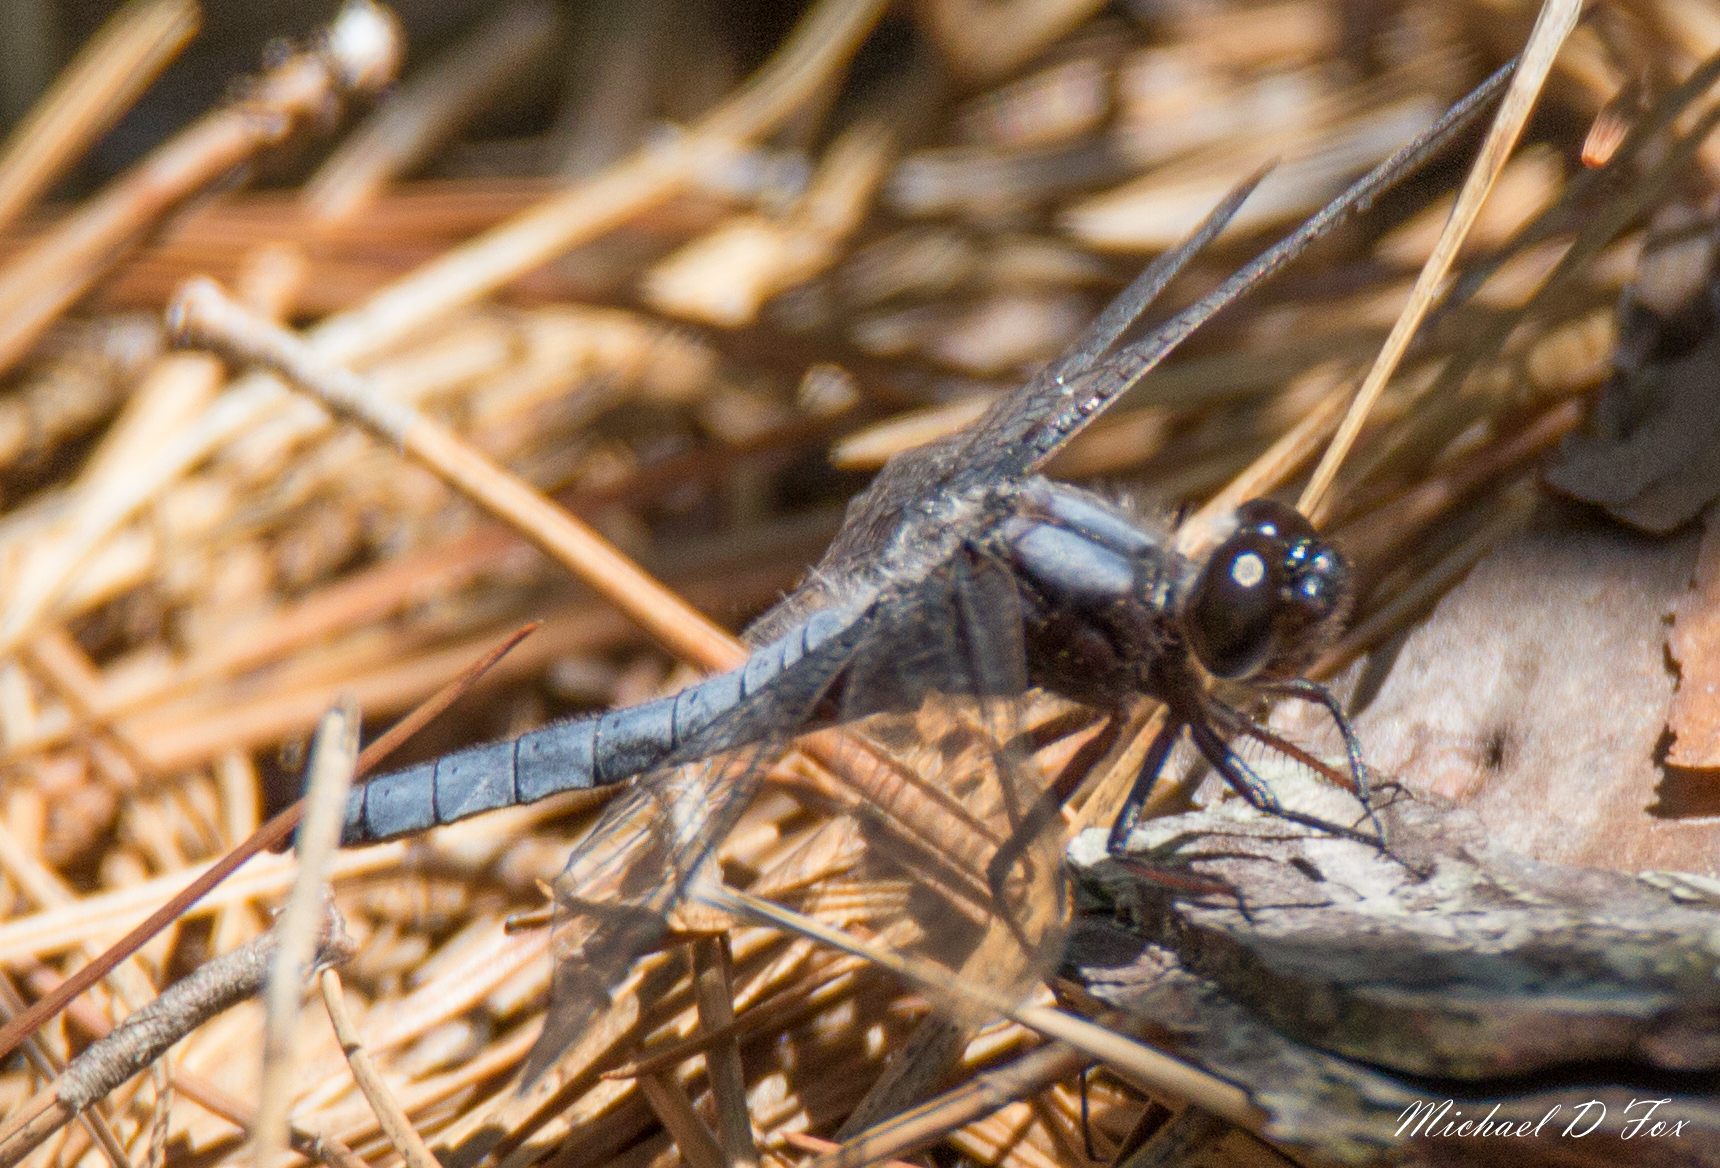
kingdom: Animalia
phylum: Arthropoda
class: Insecta
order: Odonata
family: Libellulidae
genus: Ladona
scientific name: Ladona deplanata
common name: Blue corporal
